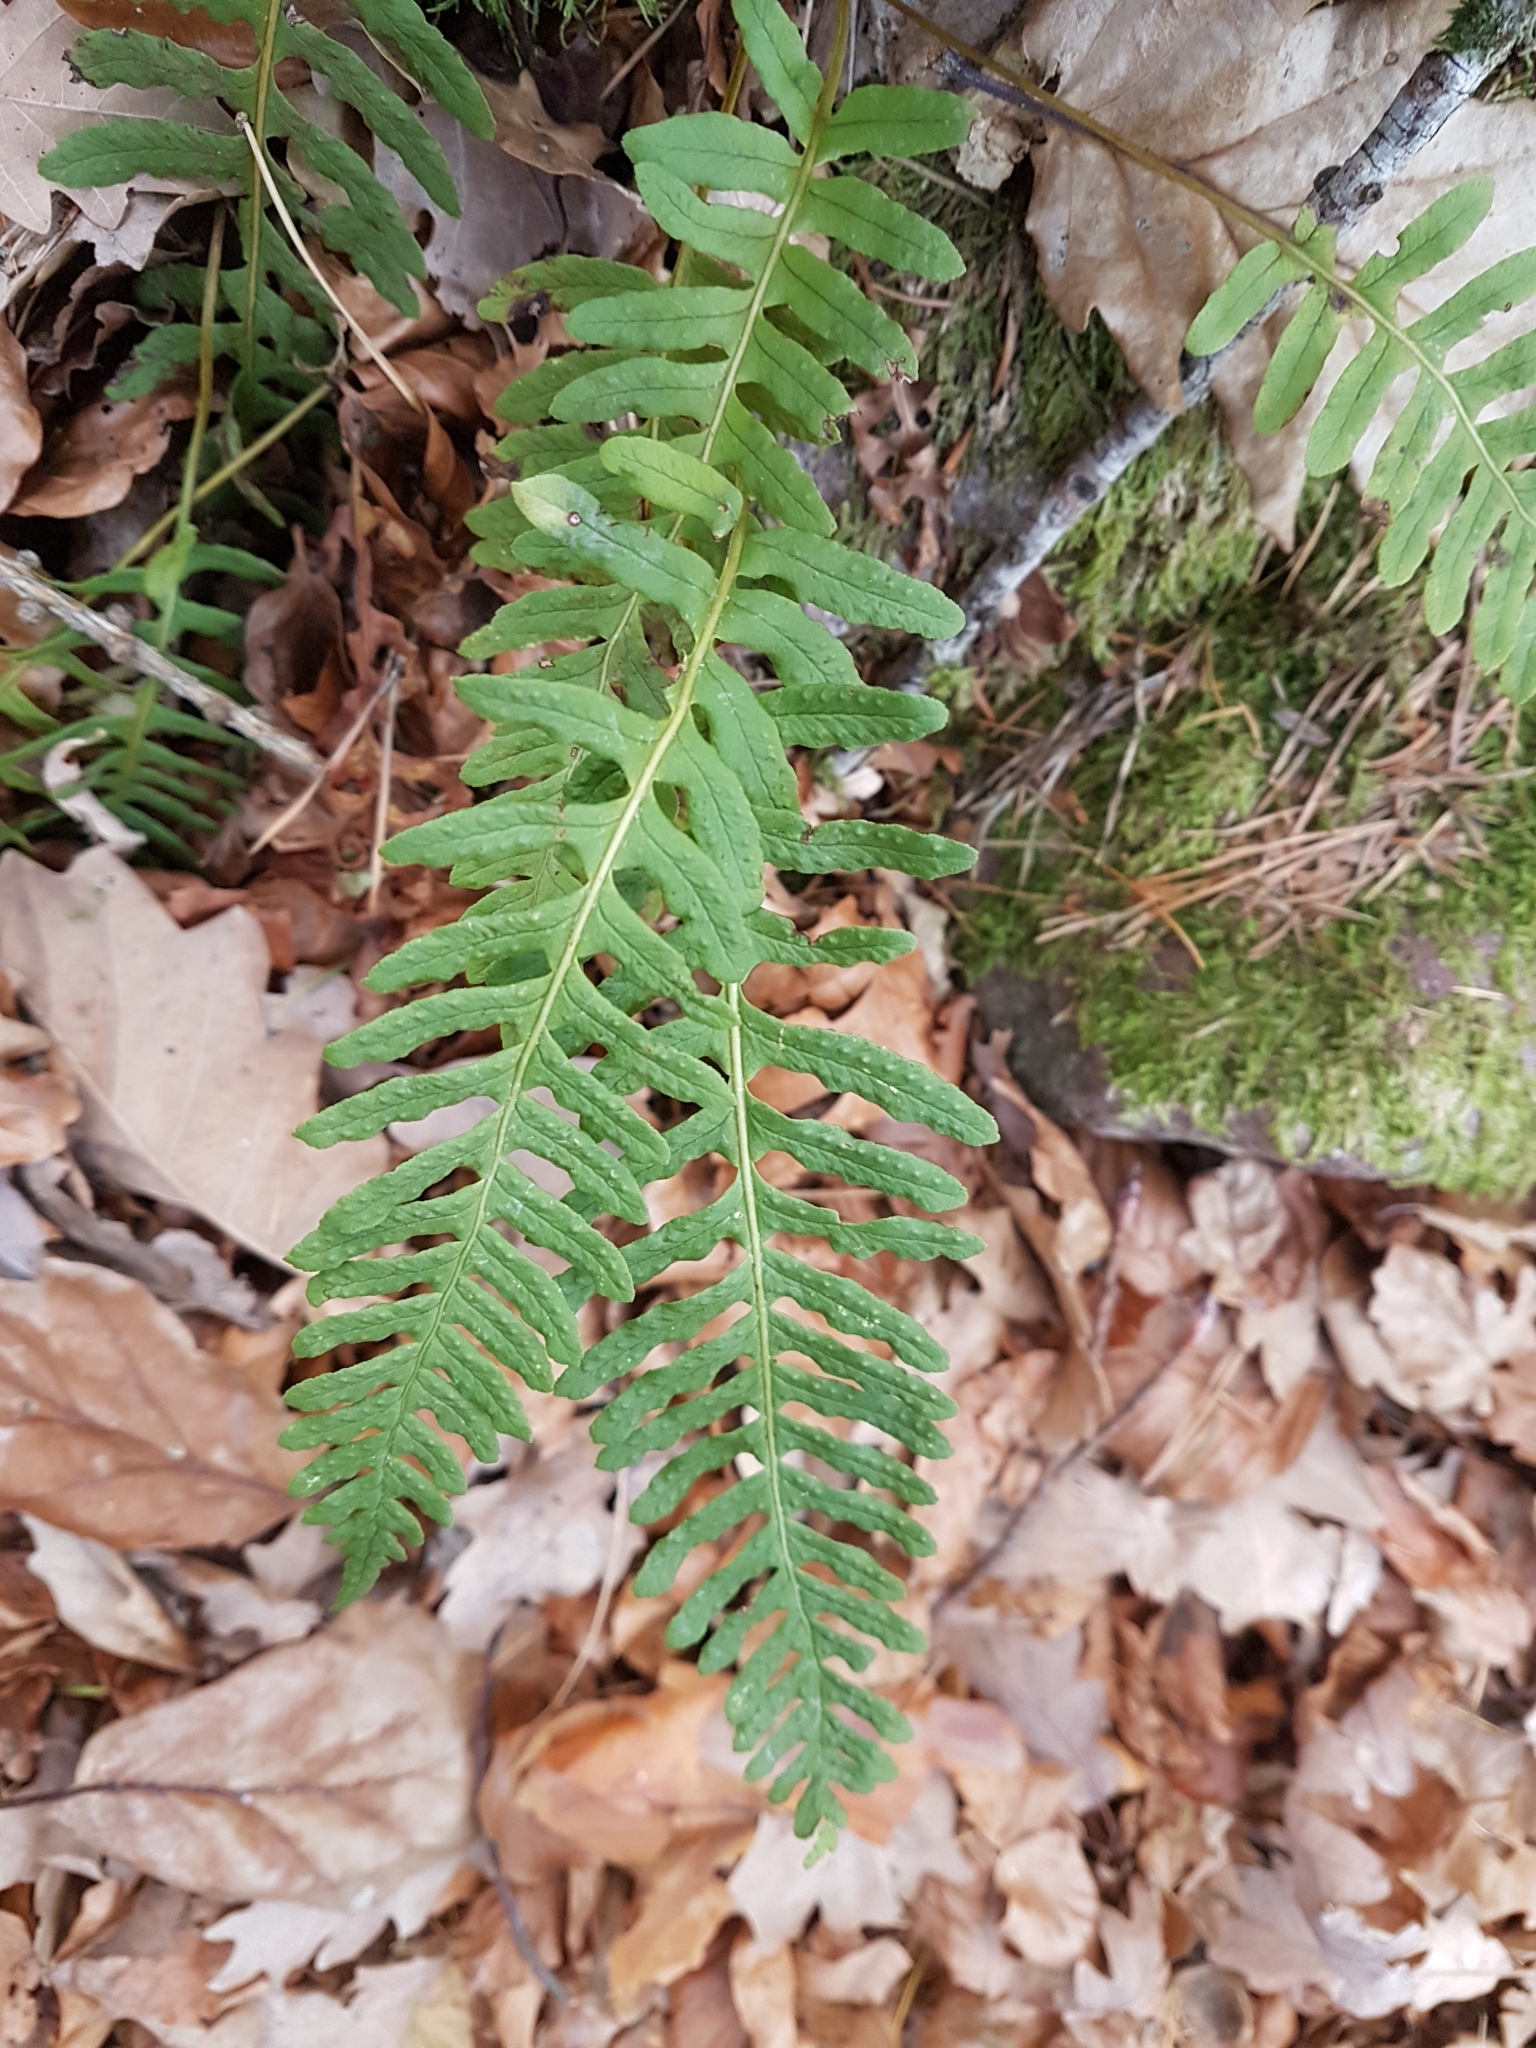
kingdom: Plantae
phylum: Tracheophyta
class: Polypodiopsida
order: Polypodiales
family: Polypodiaceae
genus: Polypodium
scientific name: Polypodium vulgare
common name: Common polypody
